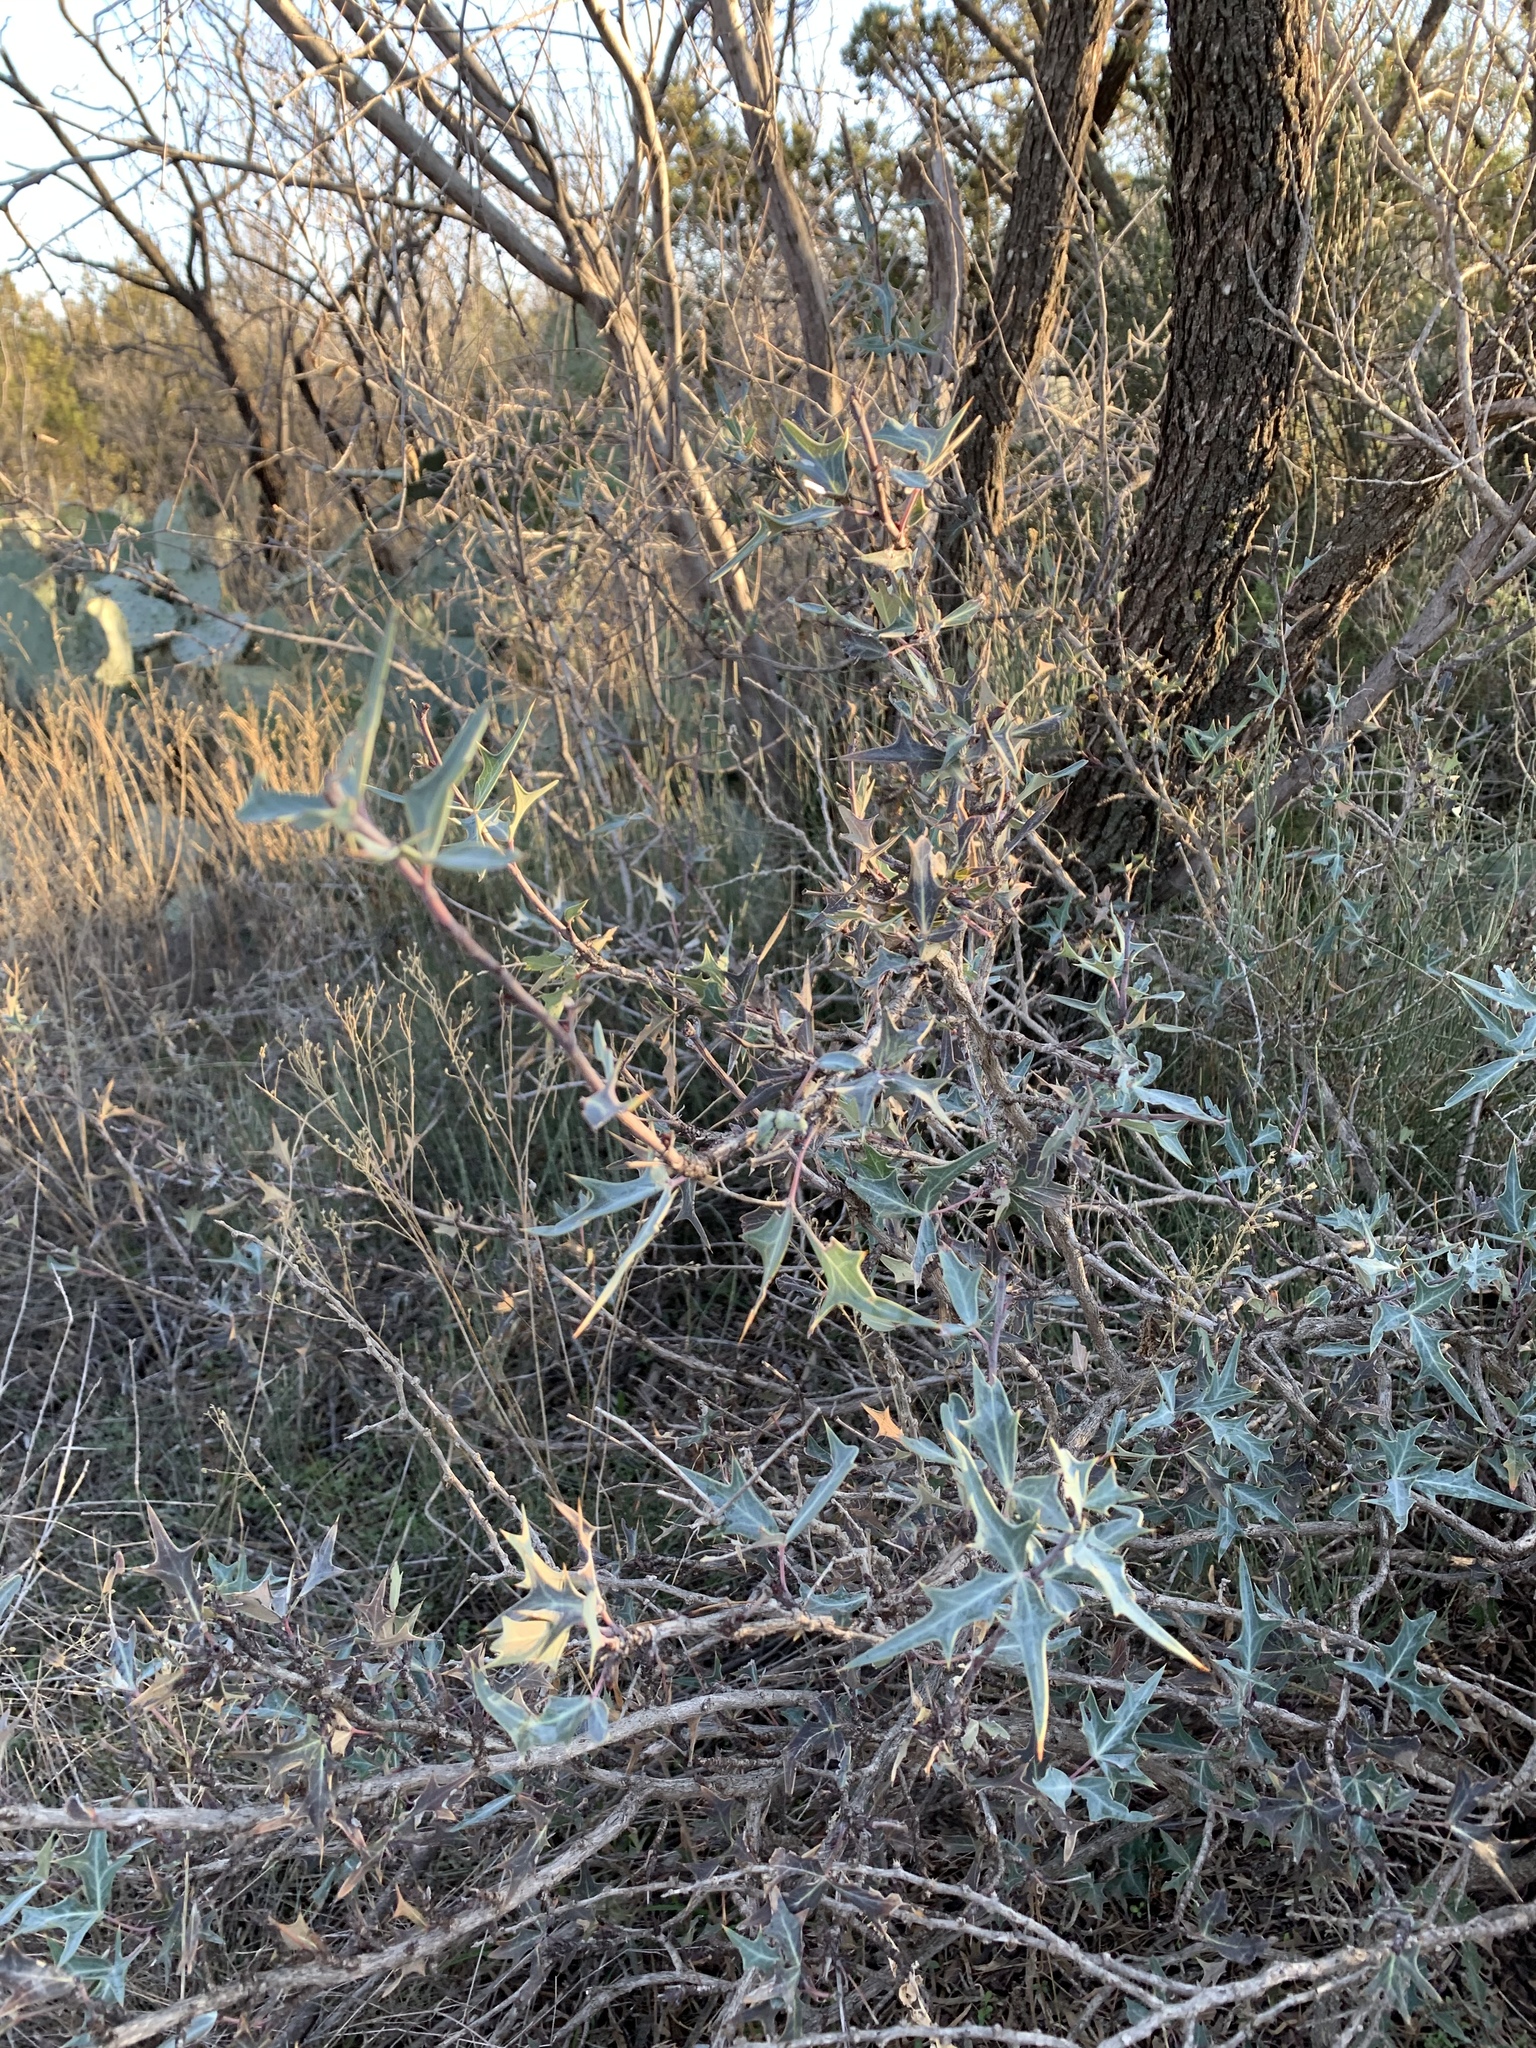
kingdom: Plantae
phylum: Tracheophyta
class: Magnoliopsida
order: Ranunculales
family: Berberidaceae
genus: Alloberberis
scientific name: Alloberberis trifoliolata
